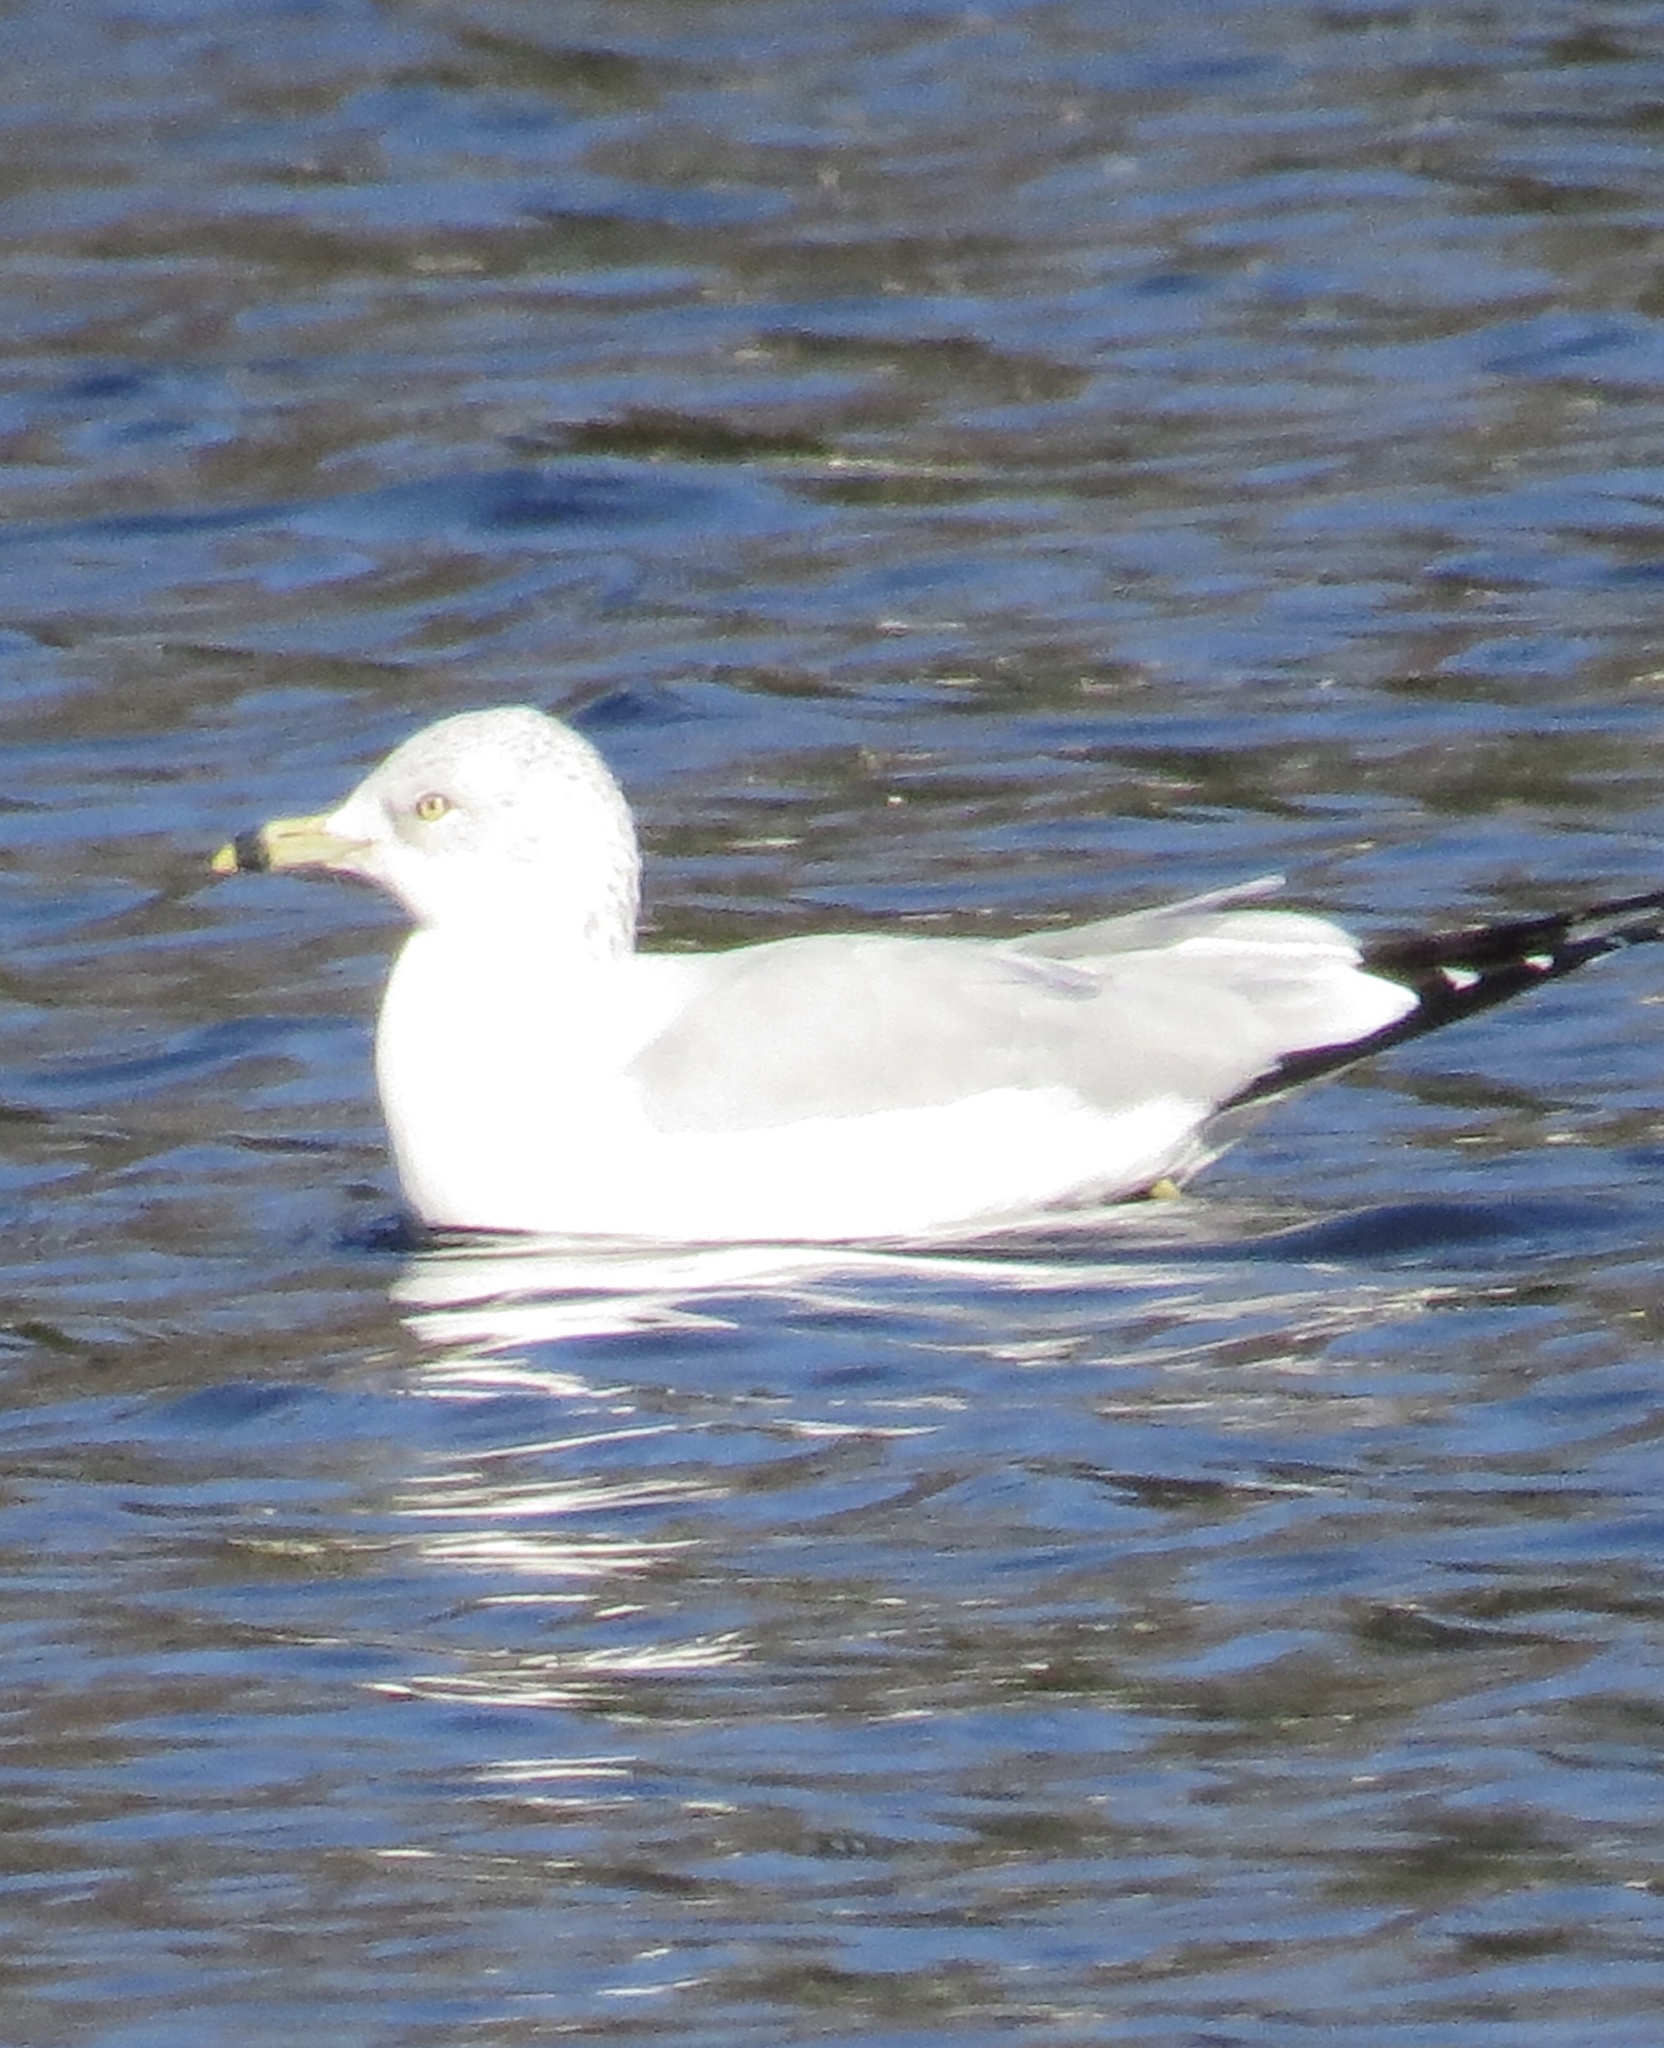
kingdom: Animalia
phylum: Chordata
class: Aves
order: Charadriiformes
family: Laridae
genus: Larus
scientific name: Larus delawarensis
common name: Ring-billed gull
